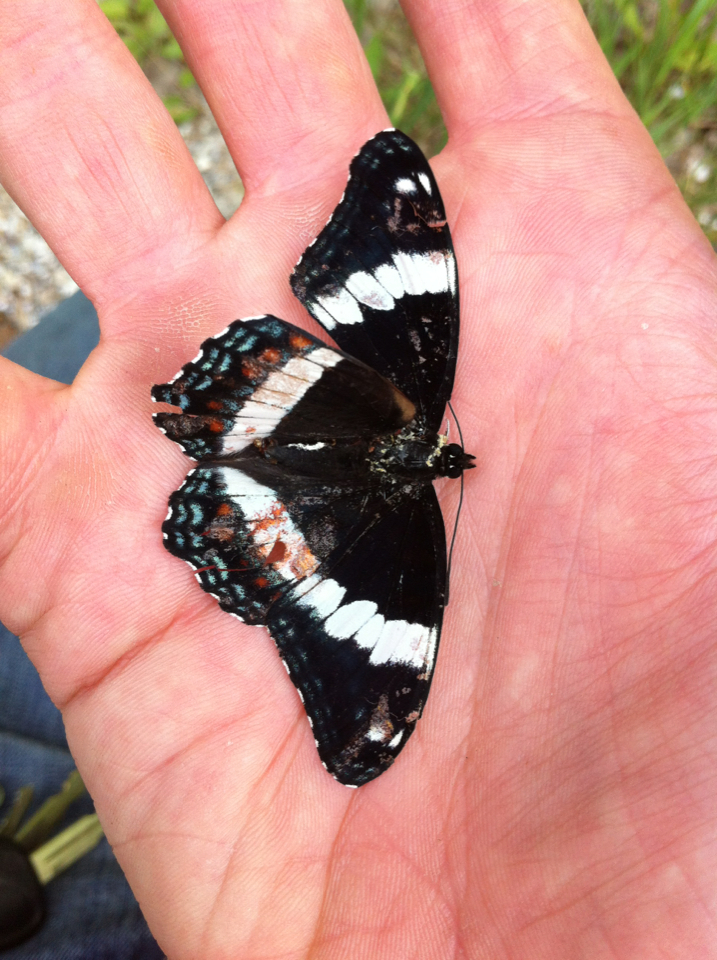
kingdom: Animalia
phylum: Arthropoda
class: Insecta
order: Lepidoptera
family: Nymphalidae
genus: Limenitis
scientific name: Limenitis arthemis
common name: Red-spotted admiral
